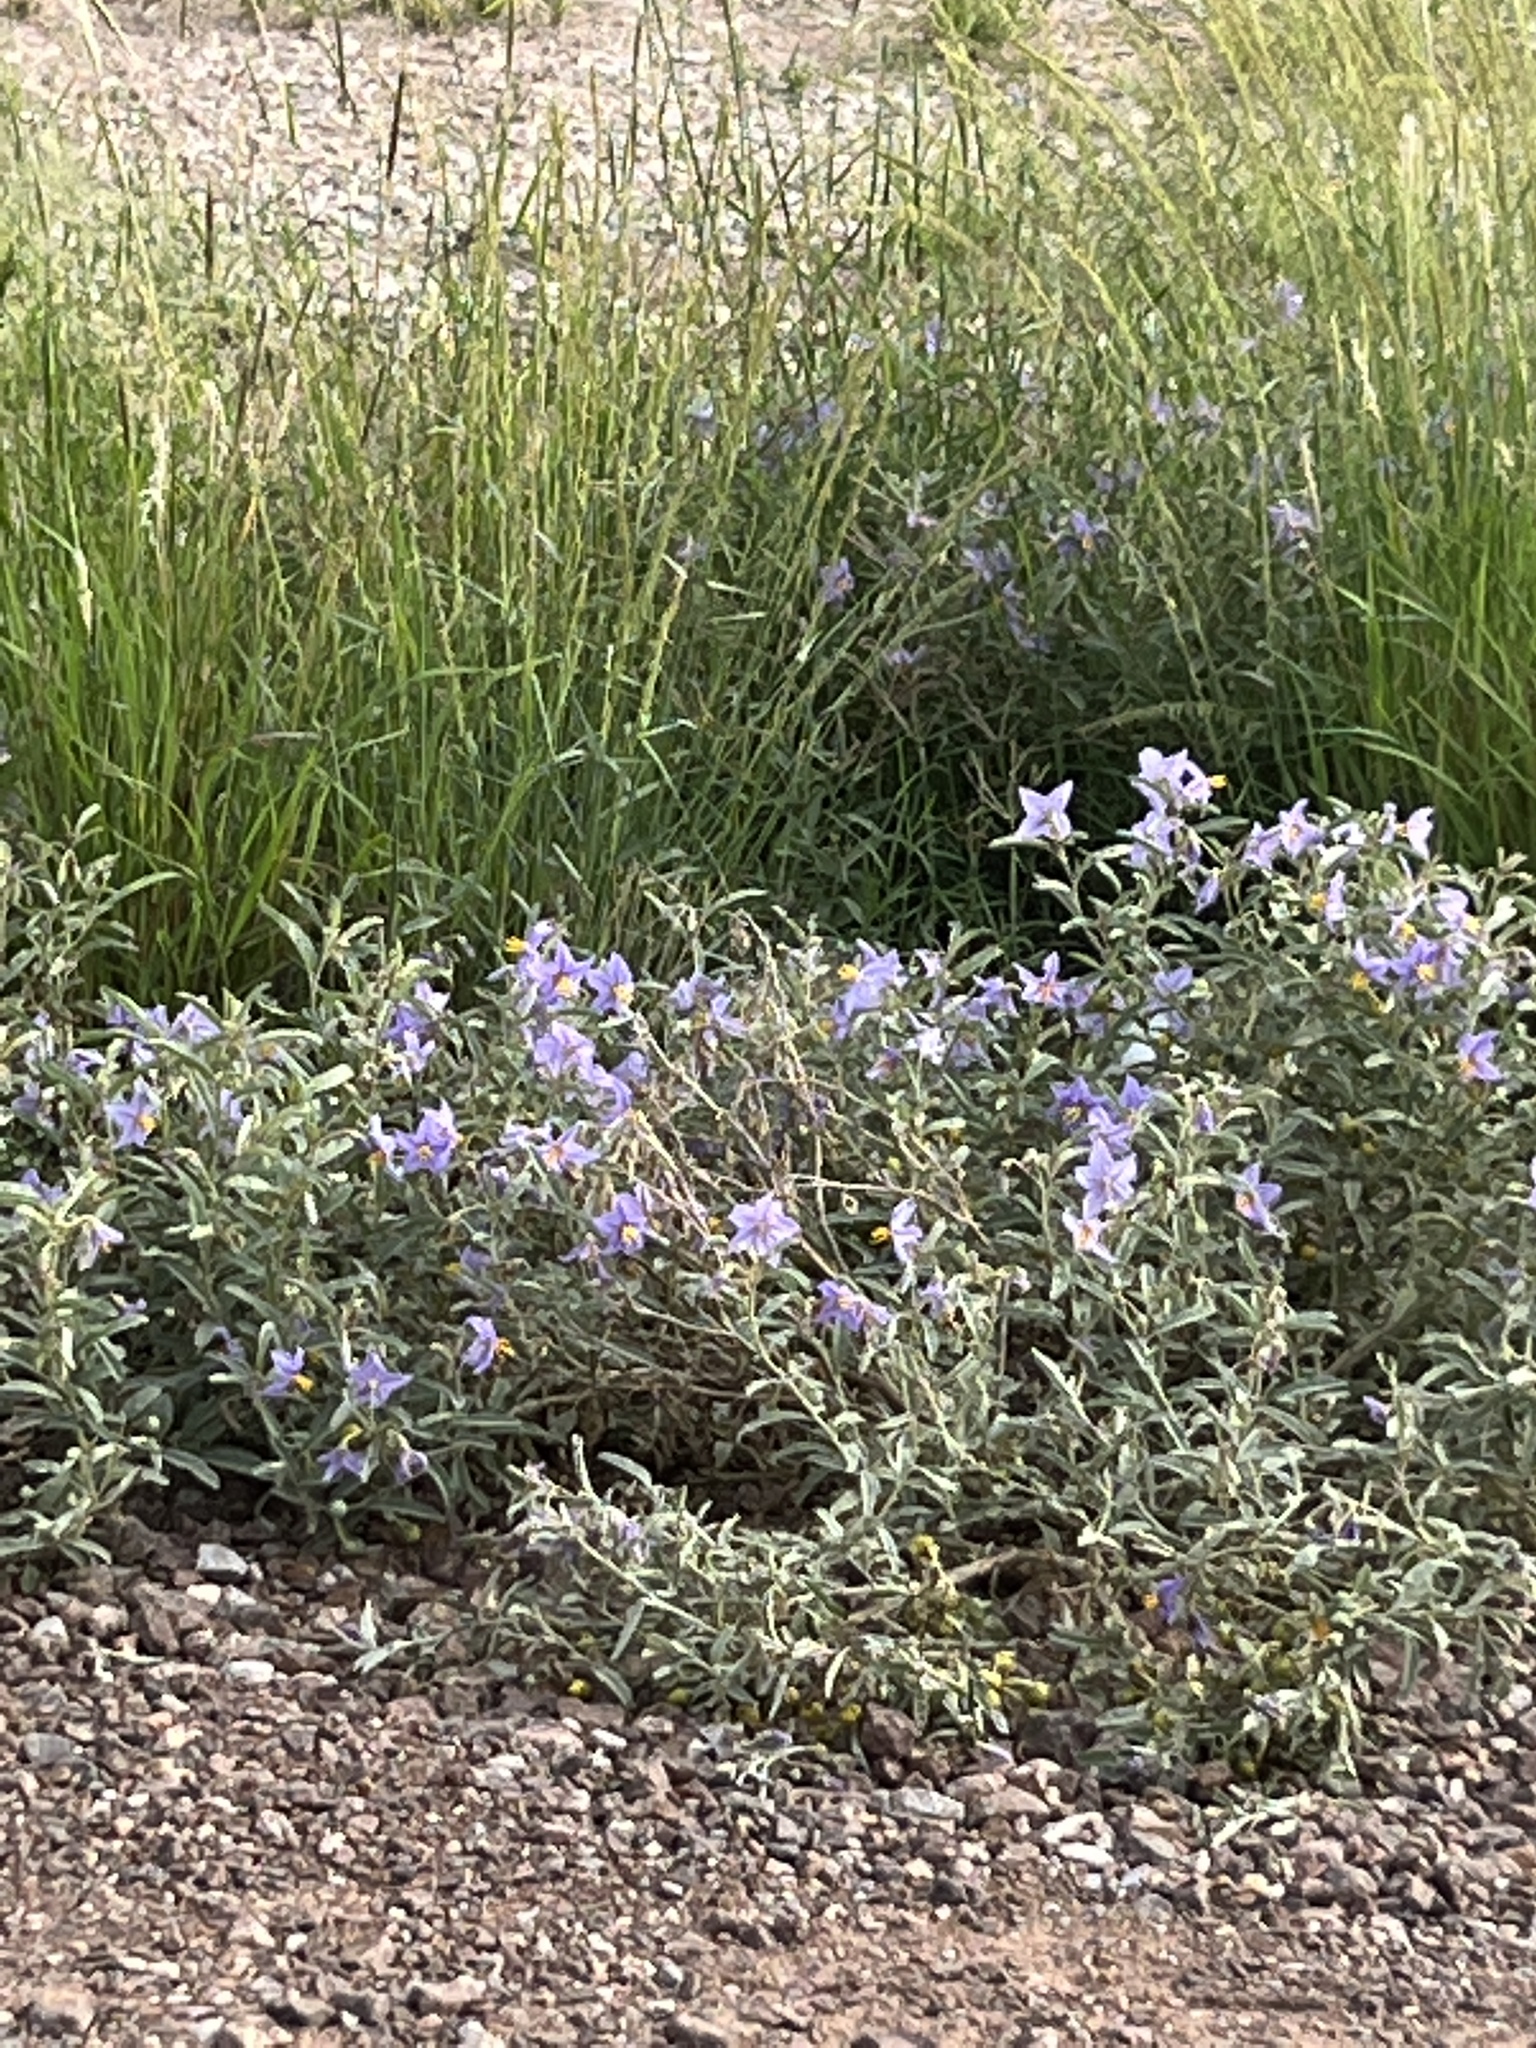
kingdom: Plantae
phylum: Tracheophyta
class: Magnoliopsida
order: Solanales
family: Solanaceae
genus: Solanum
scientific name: Solanum elaeagnifolium
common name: Silverleaf nightshade
